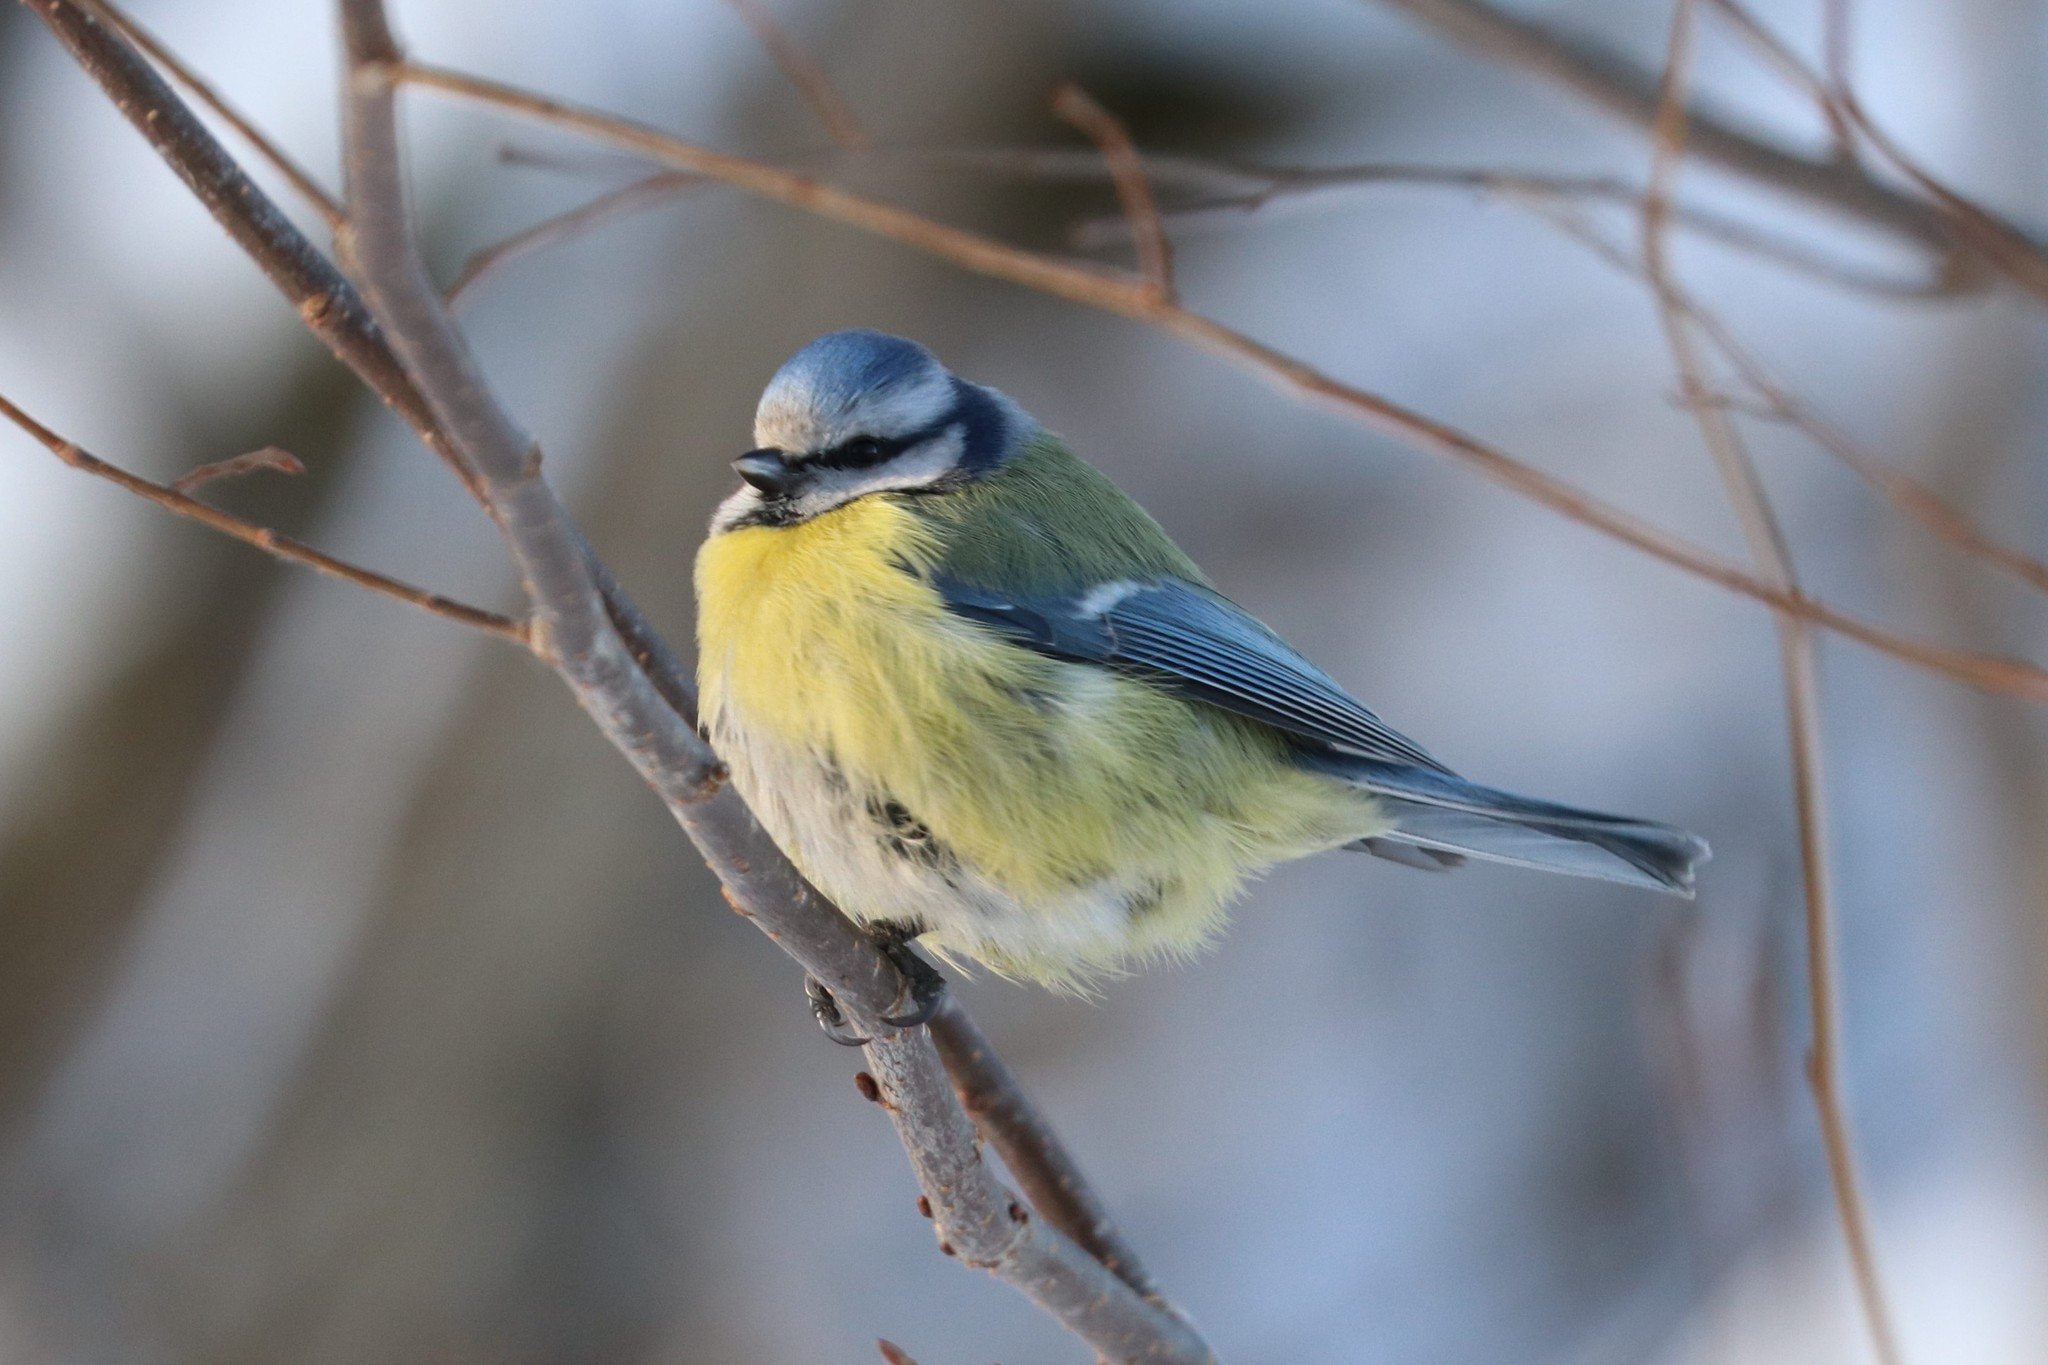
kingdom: Animalia
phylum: Chordata
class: Aves
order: Passeriformes
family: Paridae
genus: Cyanistes
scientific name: Cyanistes caeruleus
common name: Eurasian blue tit
